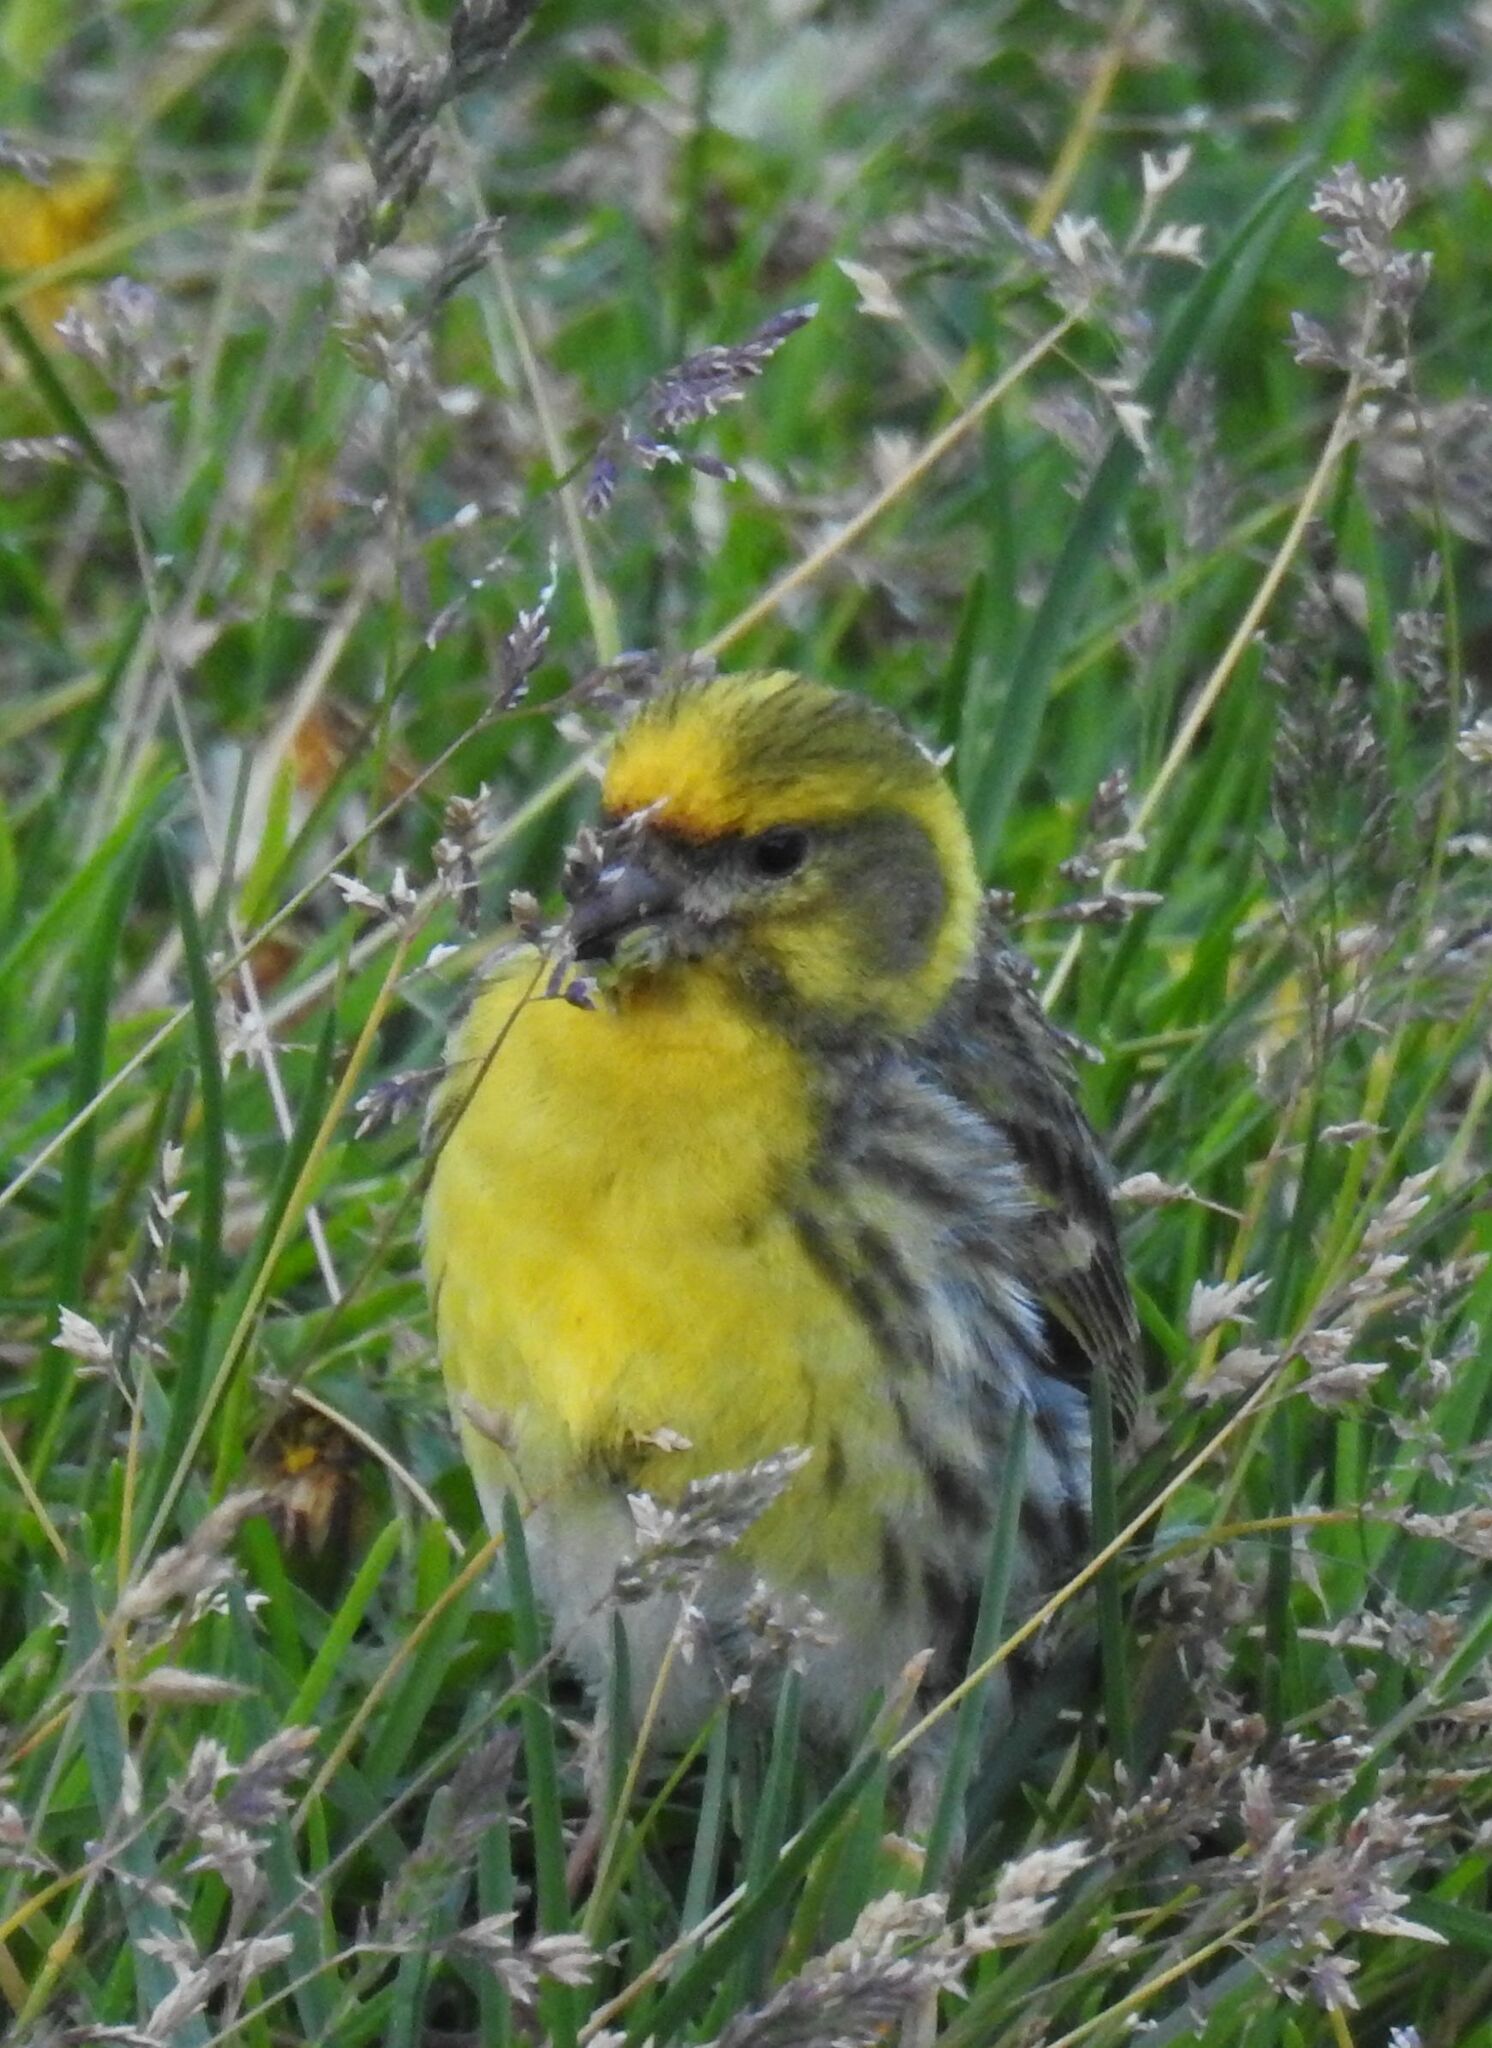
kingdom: Animalia
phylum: Chordata
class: Aves
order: Passeriformes
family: Fringillidae
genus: Serinus
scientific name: Serinus serinus
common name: European serin
